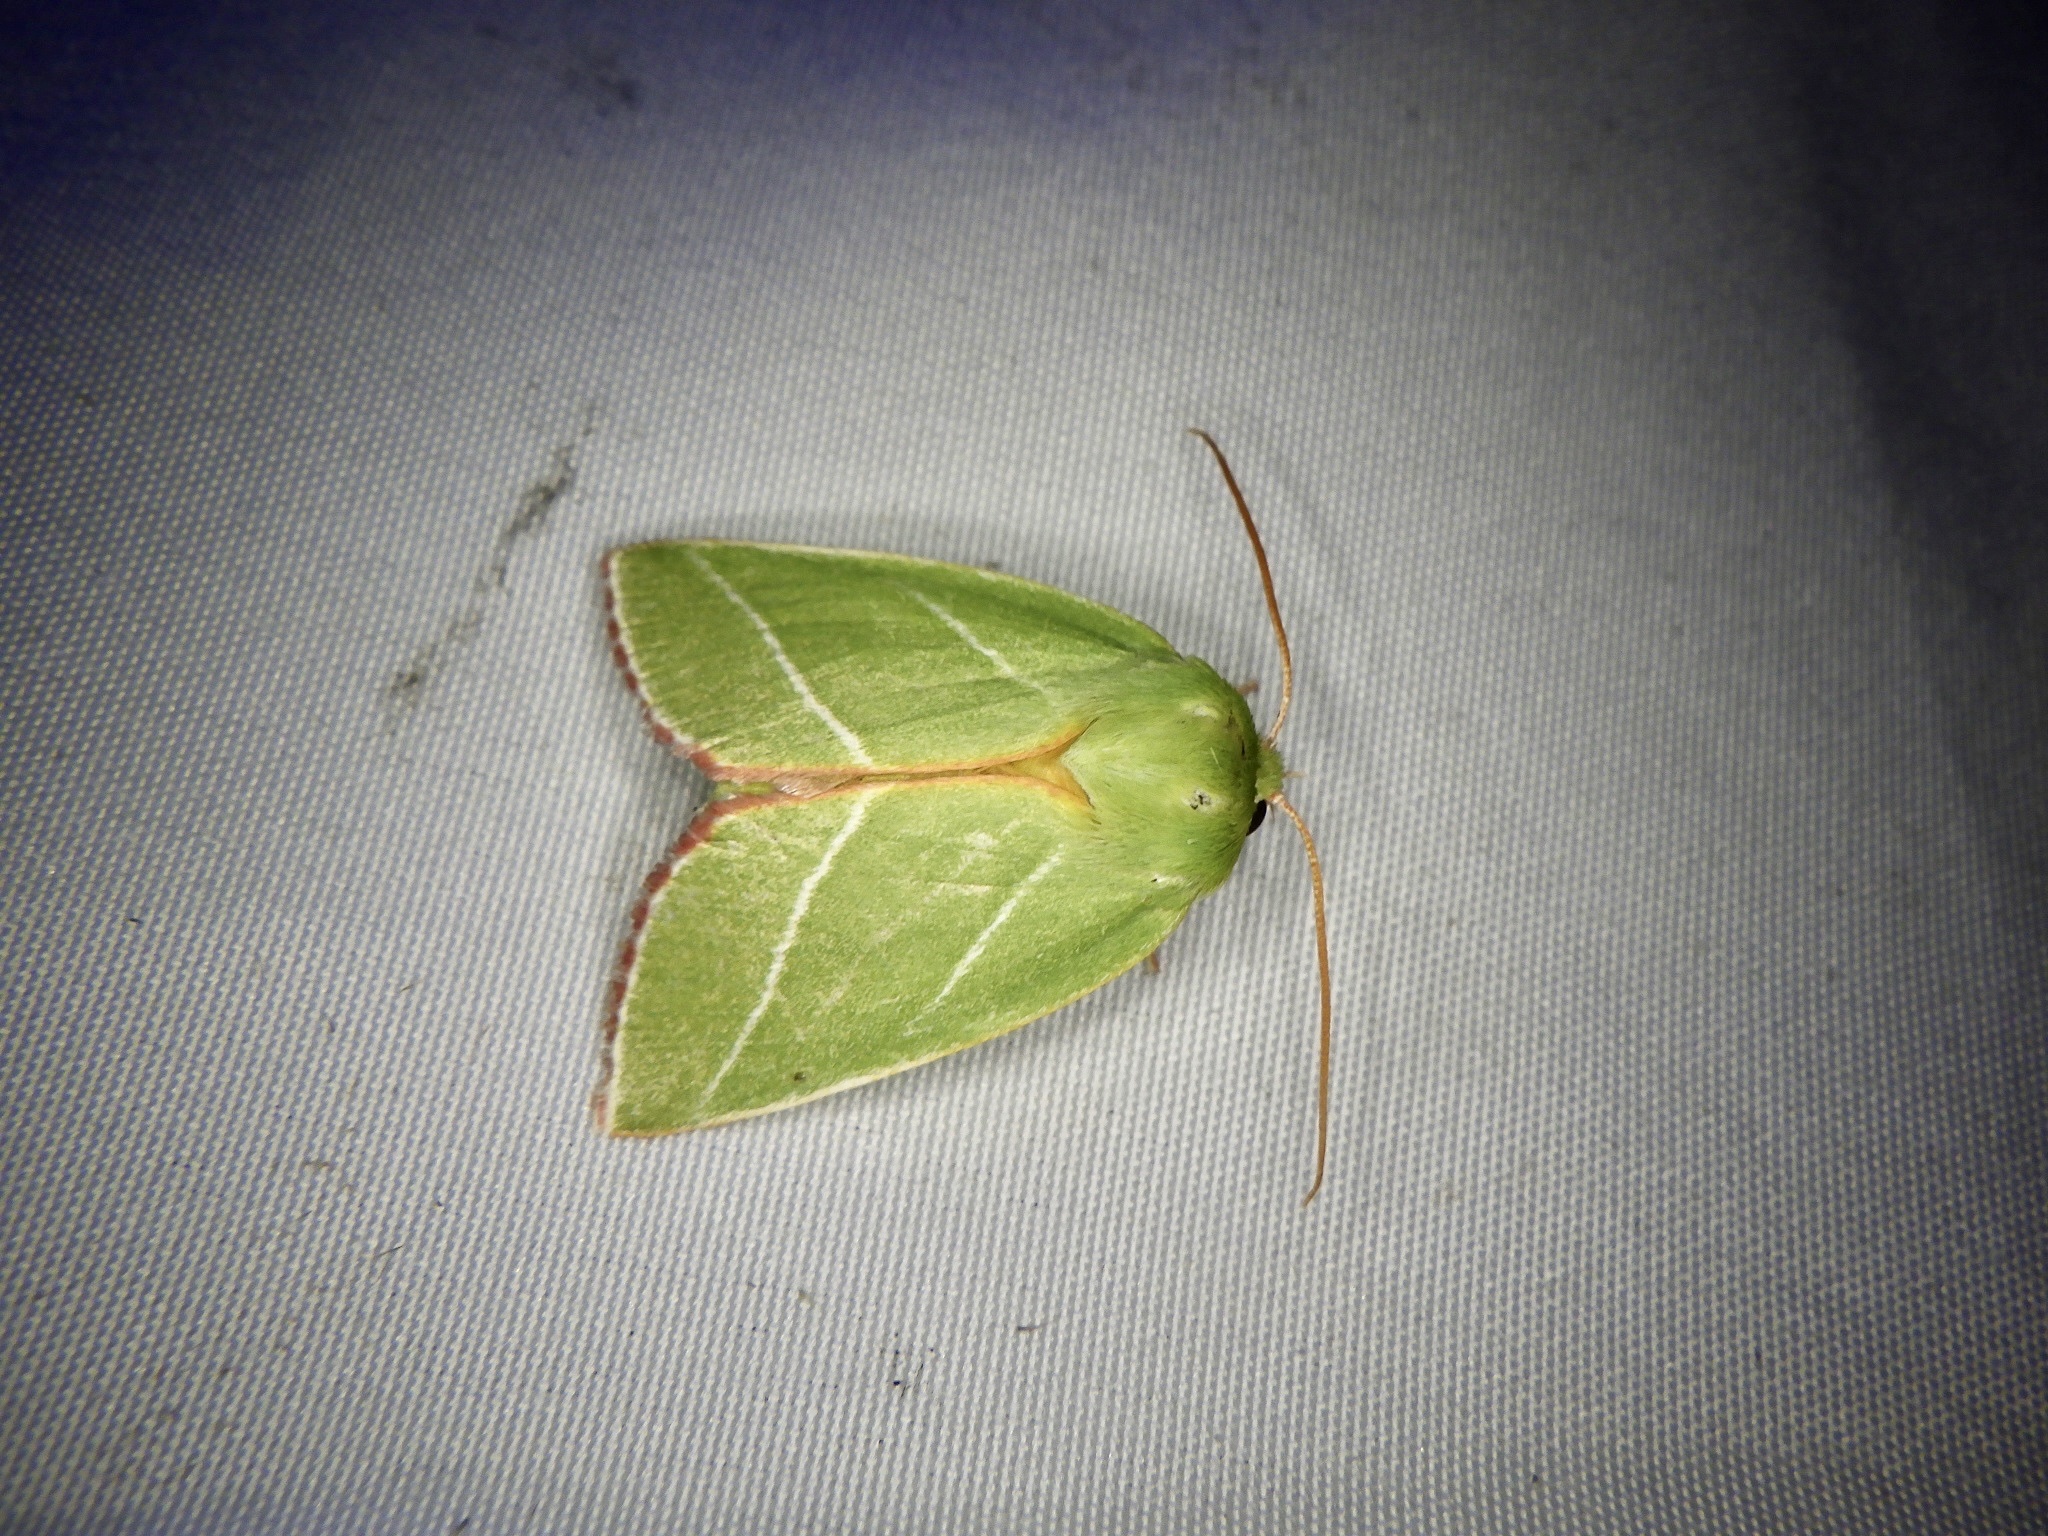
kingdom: Animalia
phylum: Arthropoda
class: Insecta
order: Lepidoptera
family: Nolidae
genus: Pseudoips
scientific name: Pseudoips prasinana
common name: Green silver-lines
